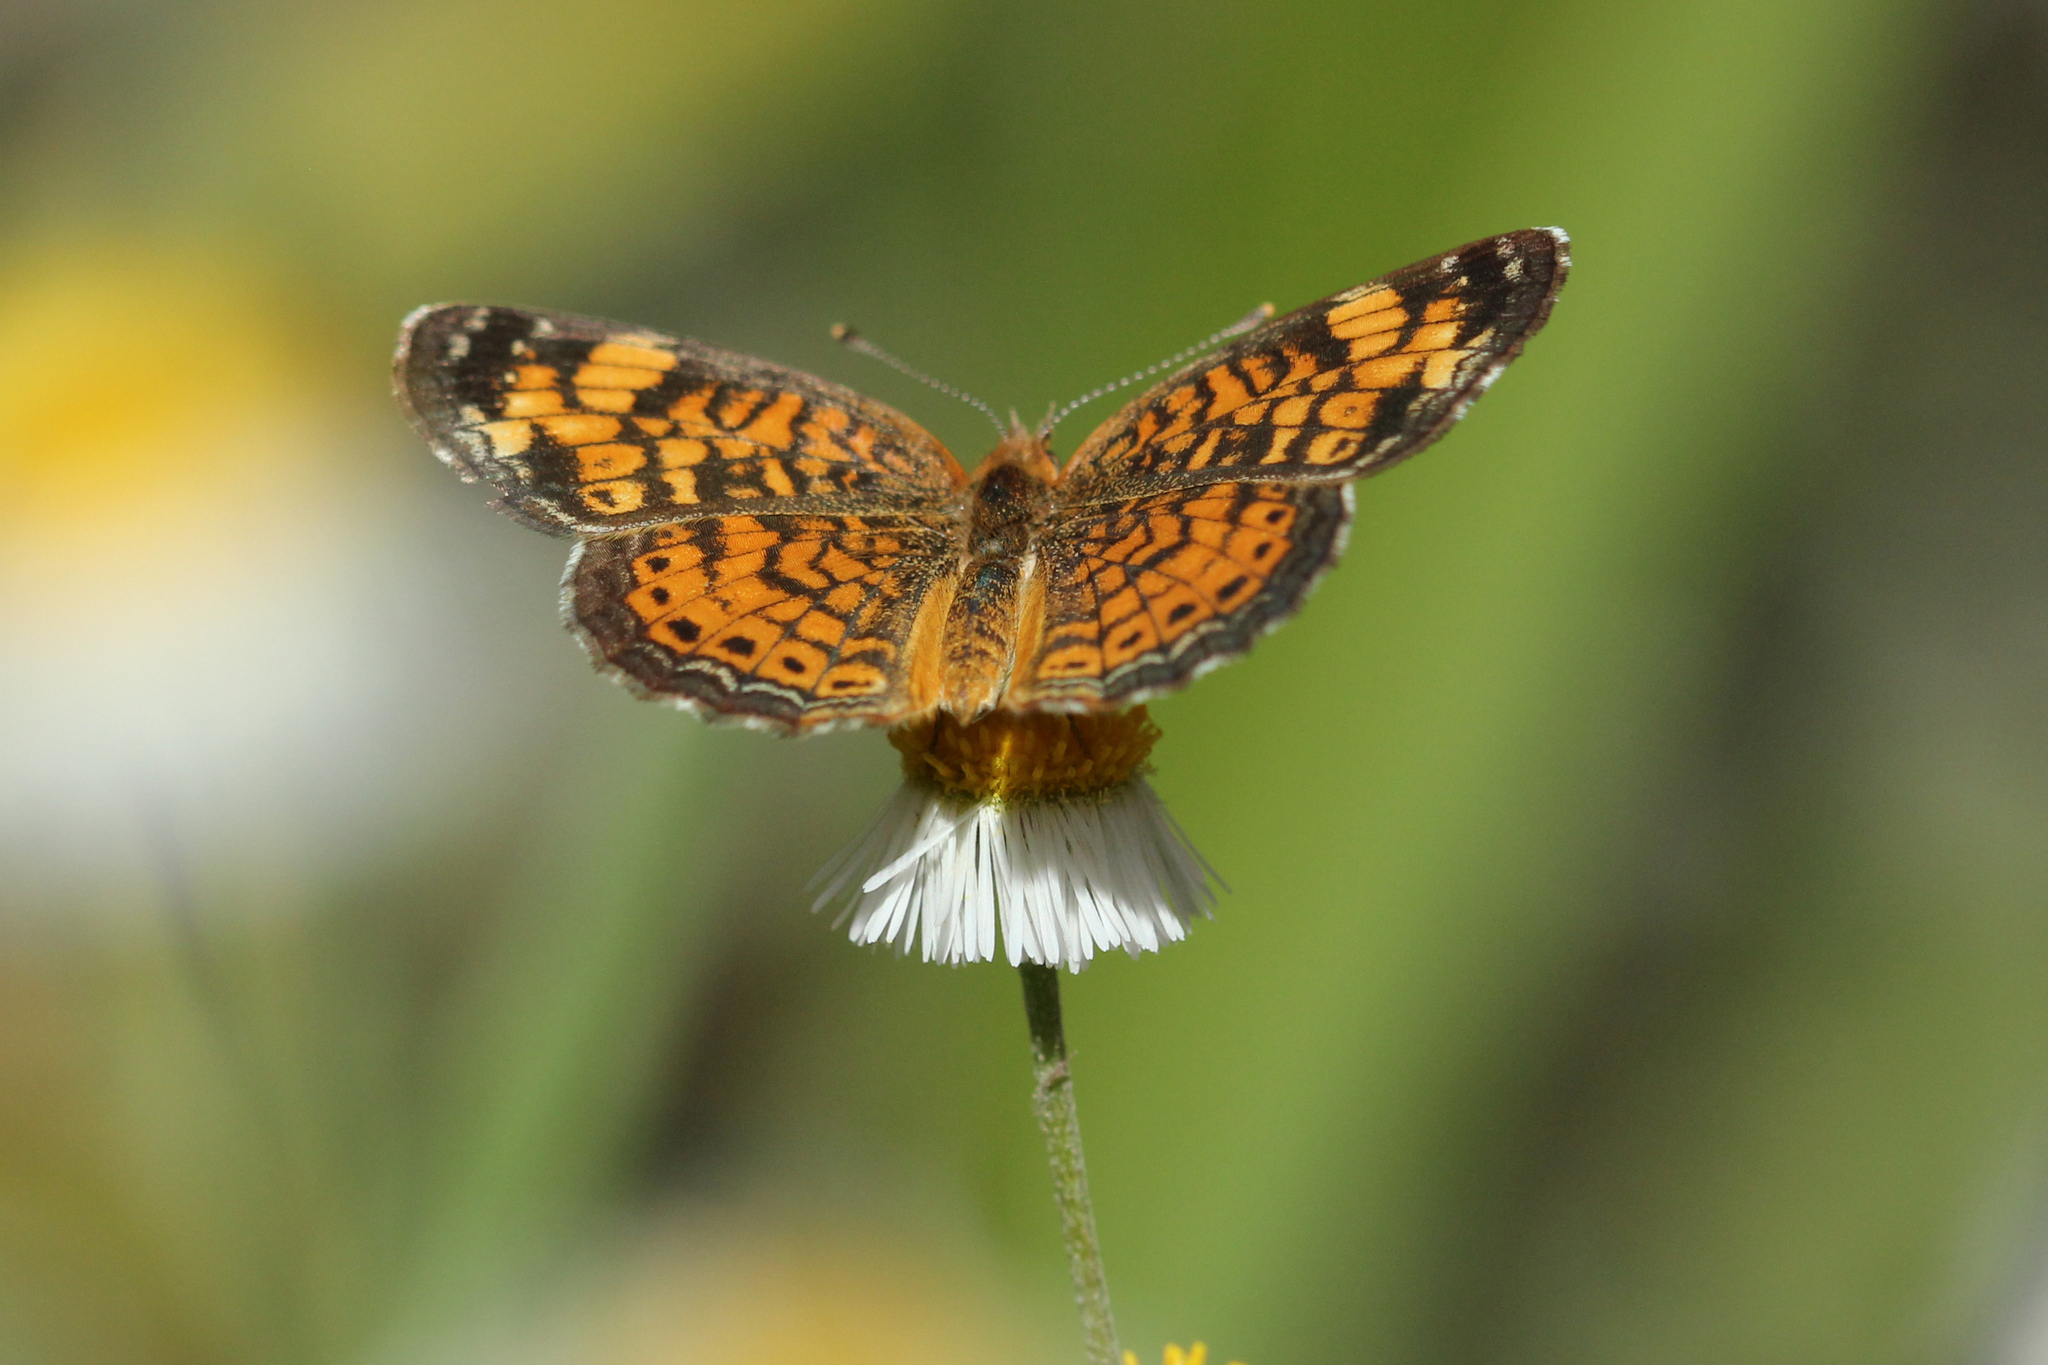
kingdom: Animalia
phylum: Arthropoda
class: Insecta
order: Lepidoptera
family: Nymphalidae
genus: Phyciodes
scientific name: Phyciodes tharos
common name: Pearl crescent
